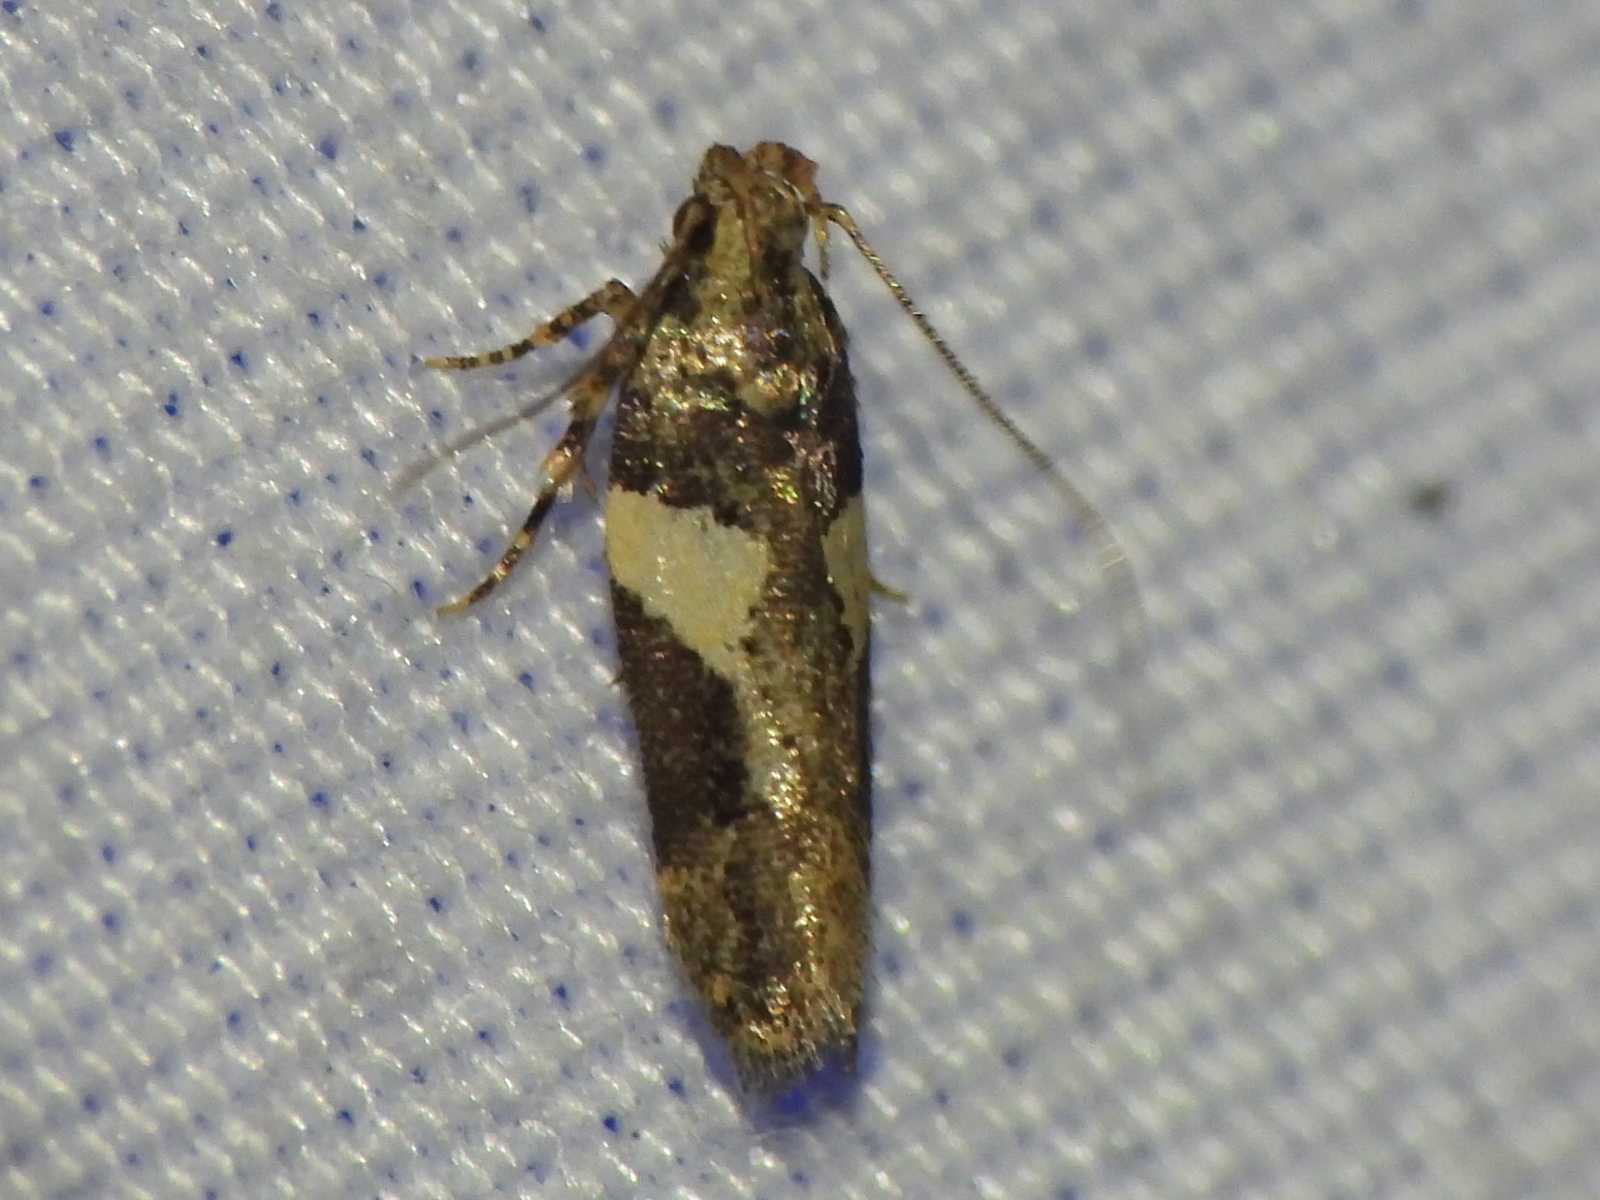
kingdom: Animalia
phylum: Arthropoda
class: Insecta
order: Lepidoptera
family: Gelechiidae
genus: Friseria
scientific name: Friseria acaciella
